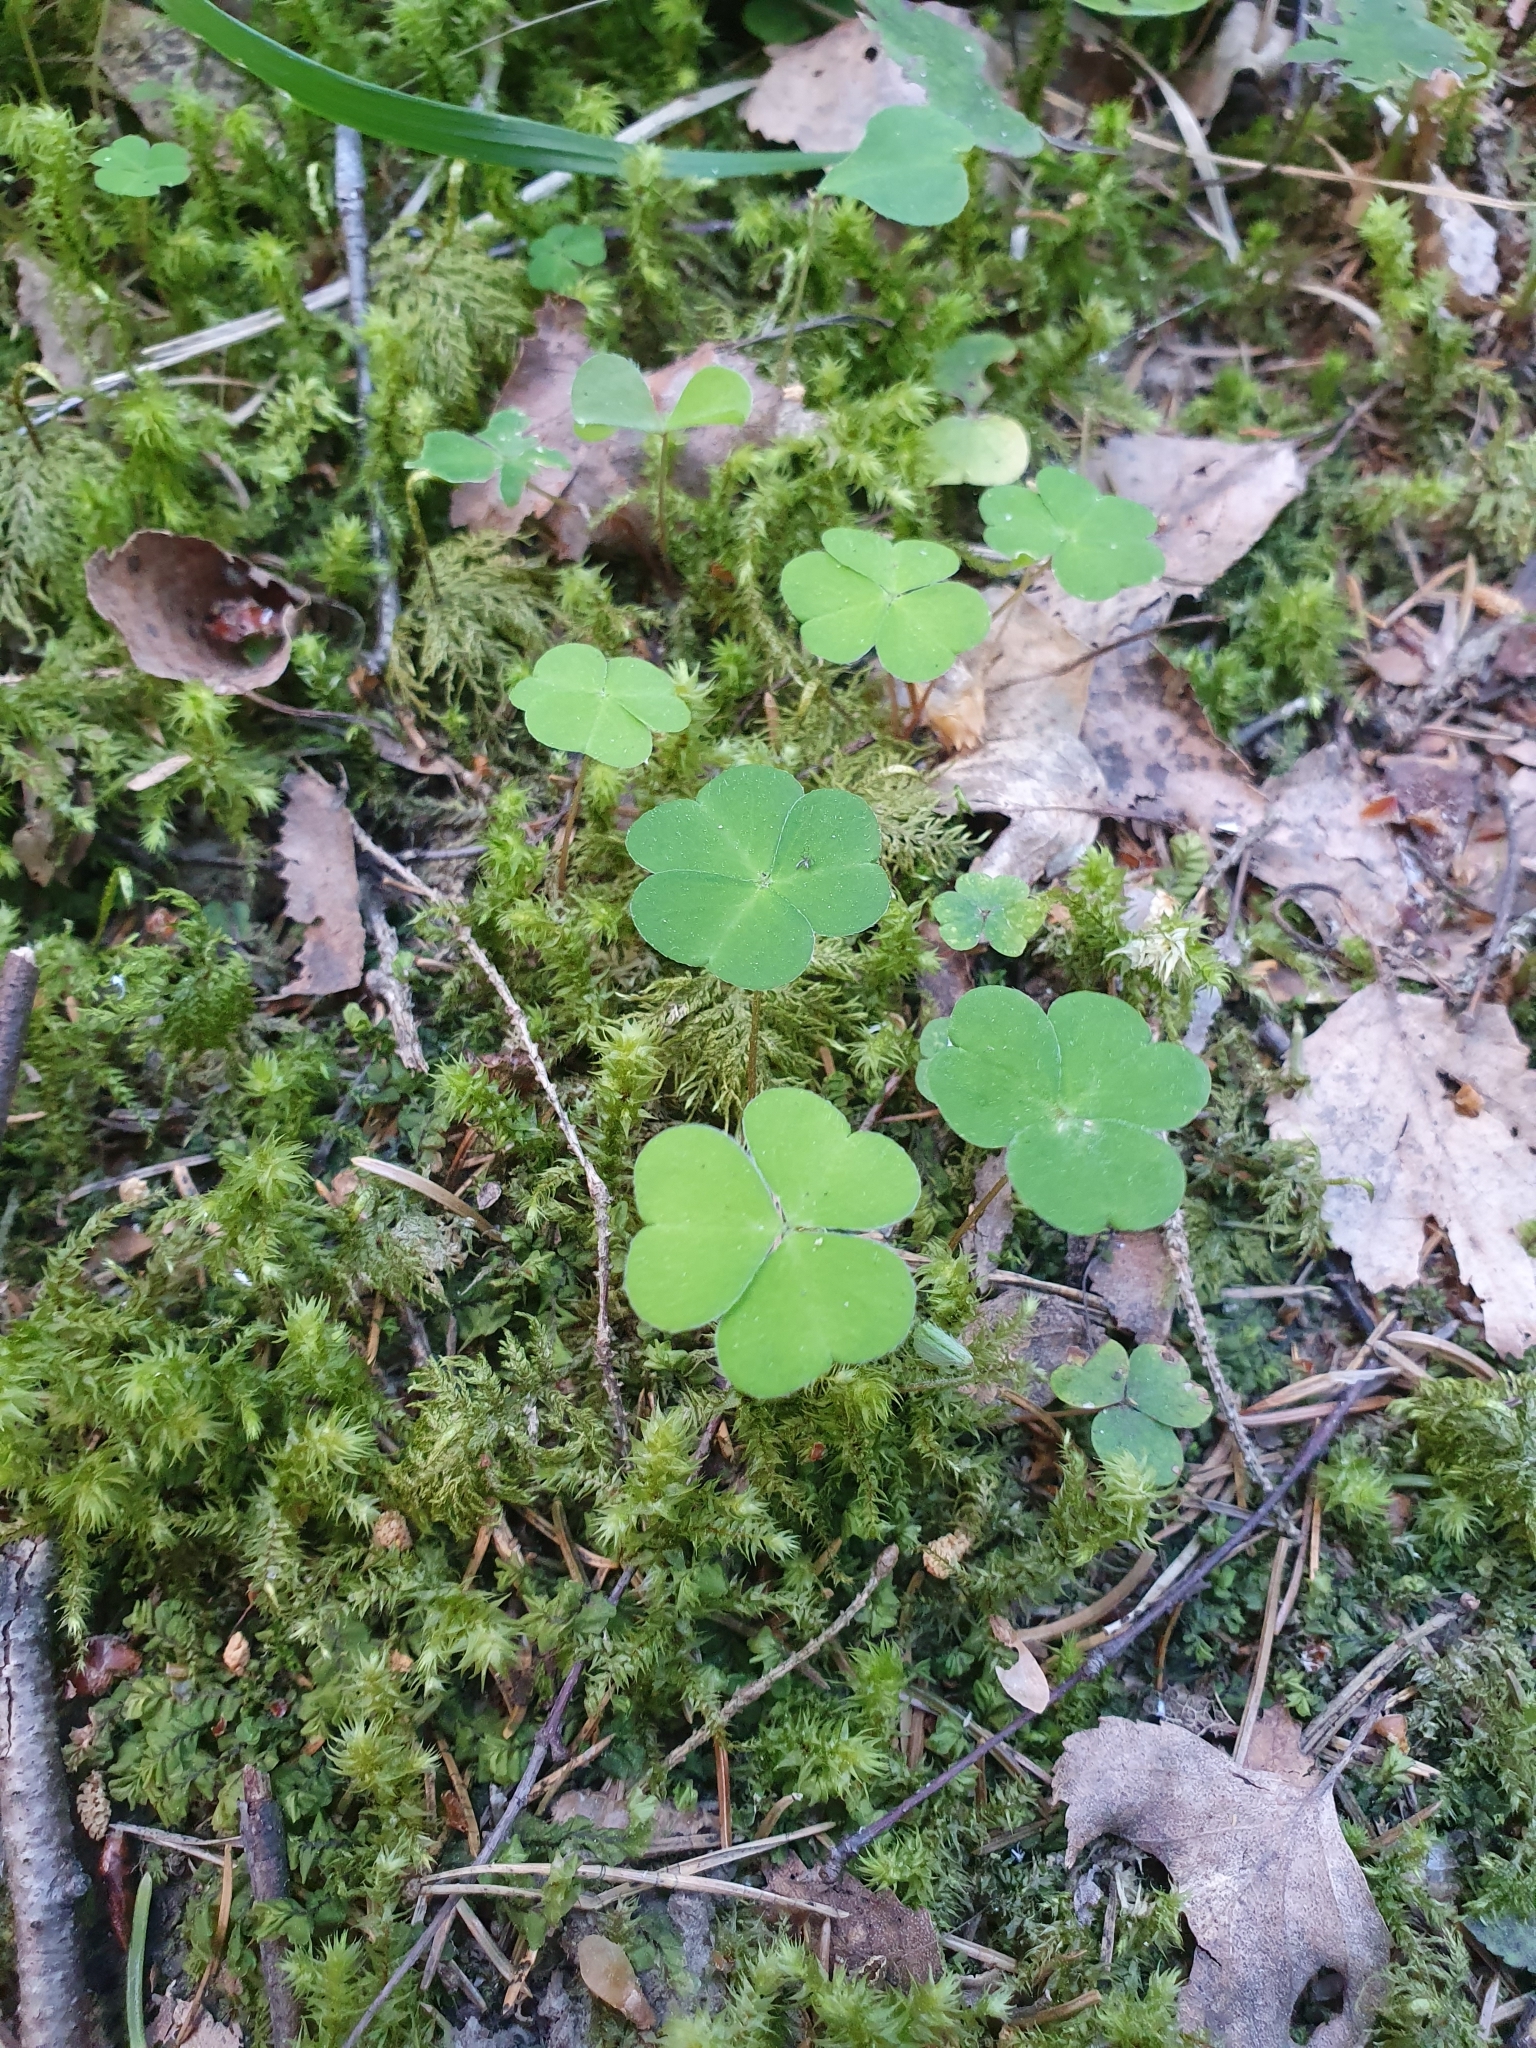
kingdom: Plantae
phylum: Tracheophyta
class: Magnoliopsida
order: Oxalidales
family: Oxalidaceae
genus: Oxalis
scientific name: Oxalis acetosella
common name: Wood-sorrel
